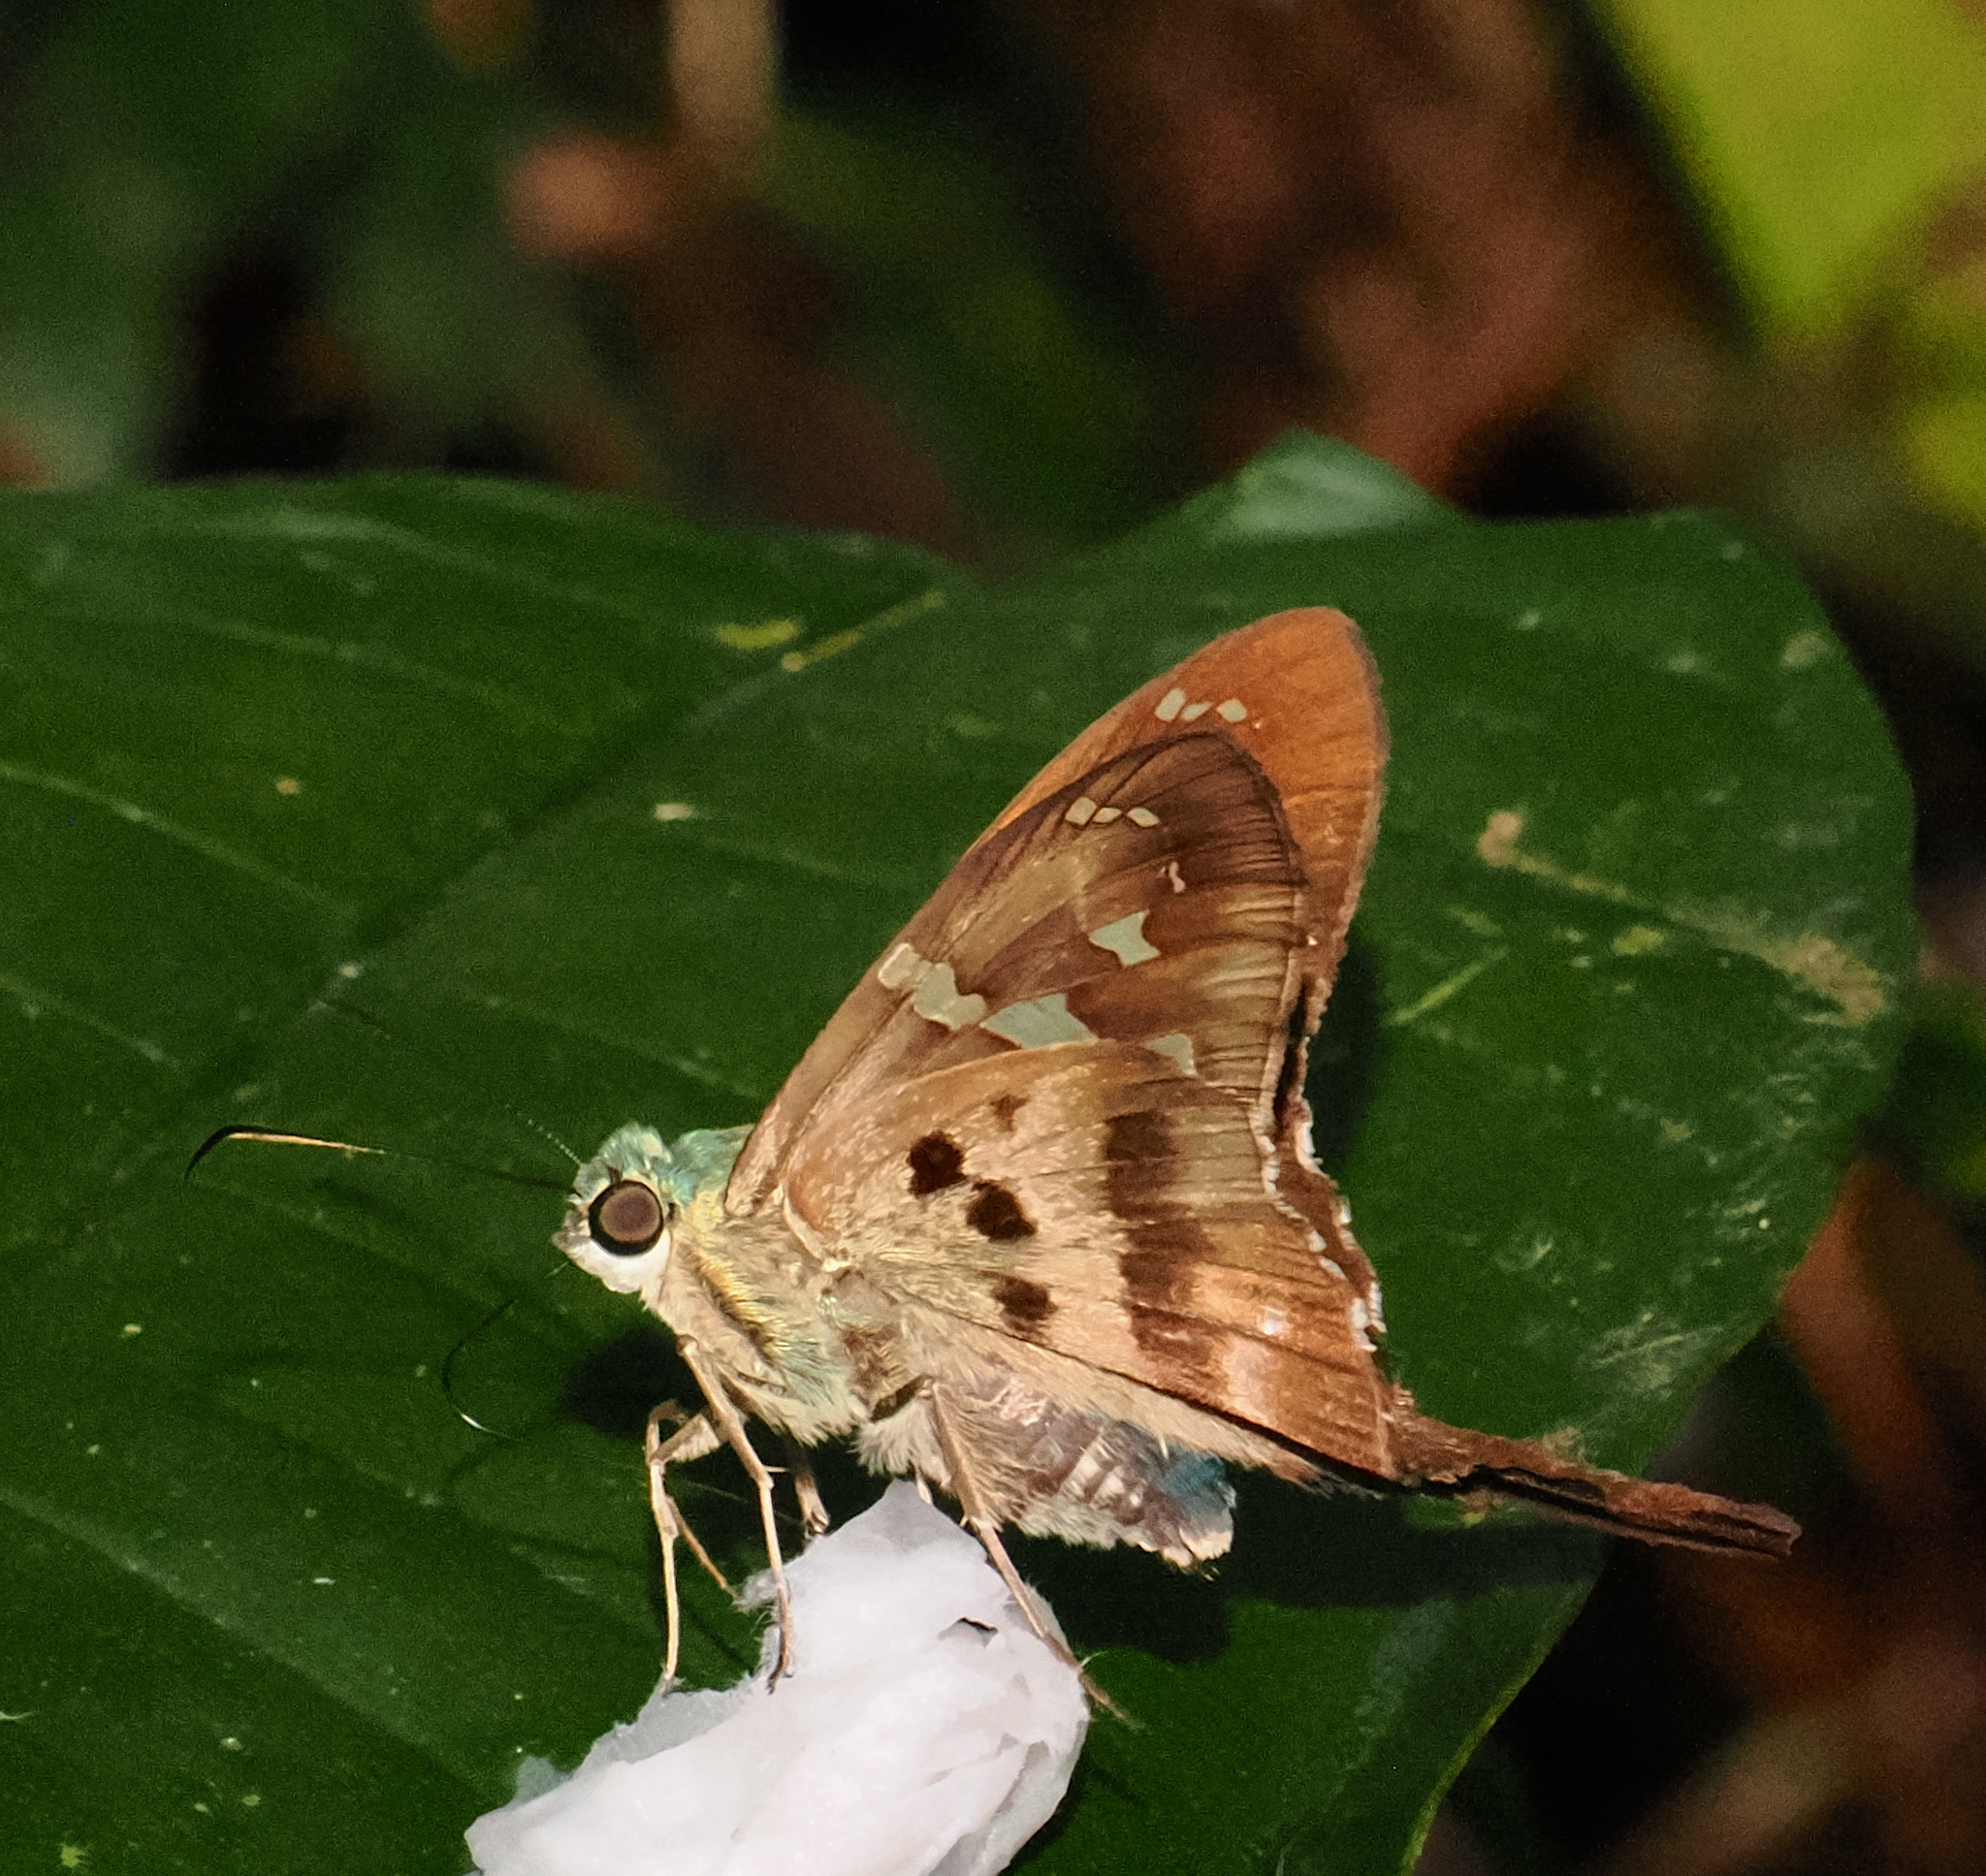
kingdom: Animalia
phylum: Arthropoda
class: Insecta
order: Lepidoptera
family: Hesperiidae
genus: Urbanus
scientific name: Urbanus proteus
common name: Long-tailed skipper
